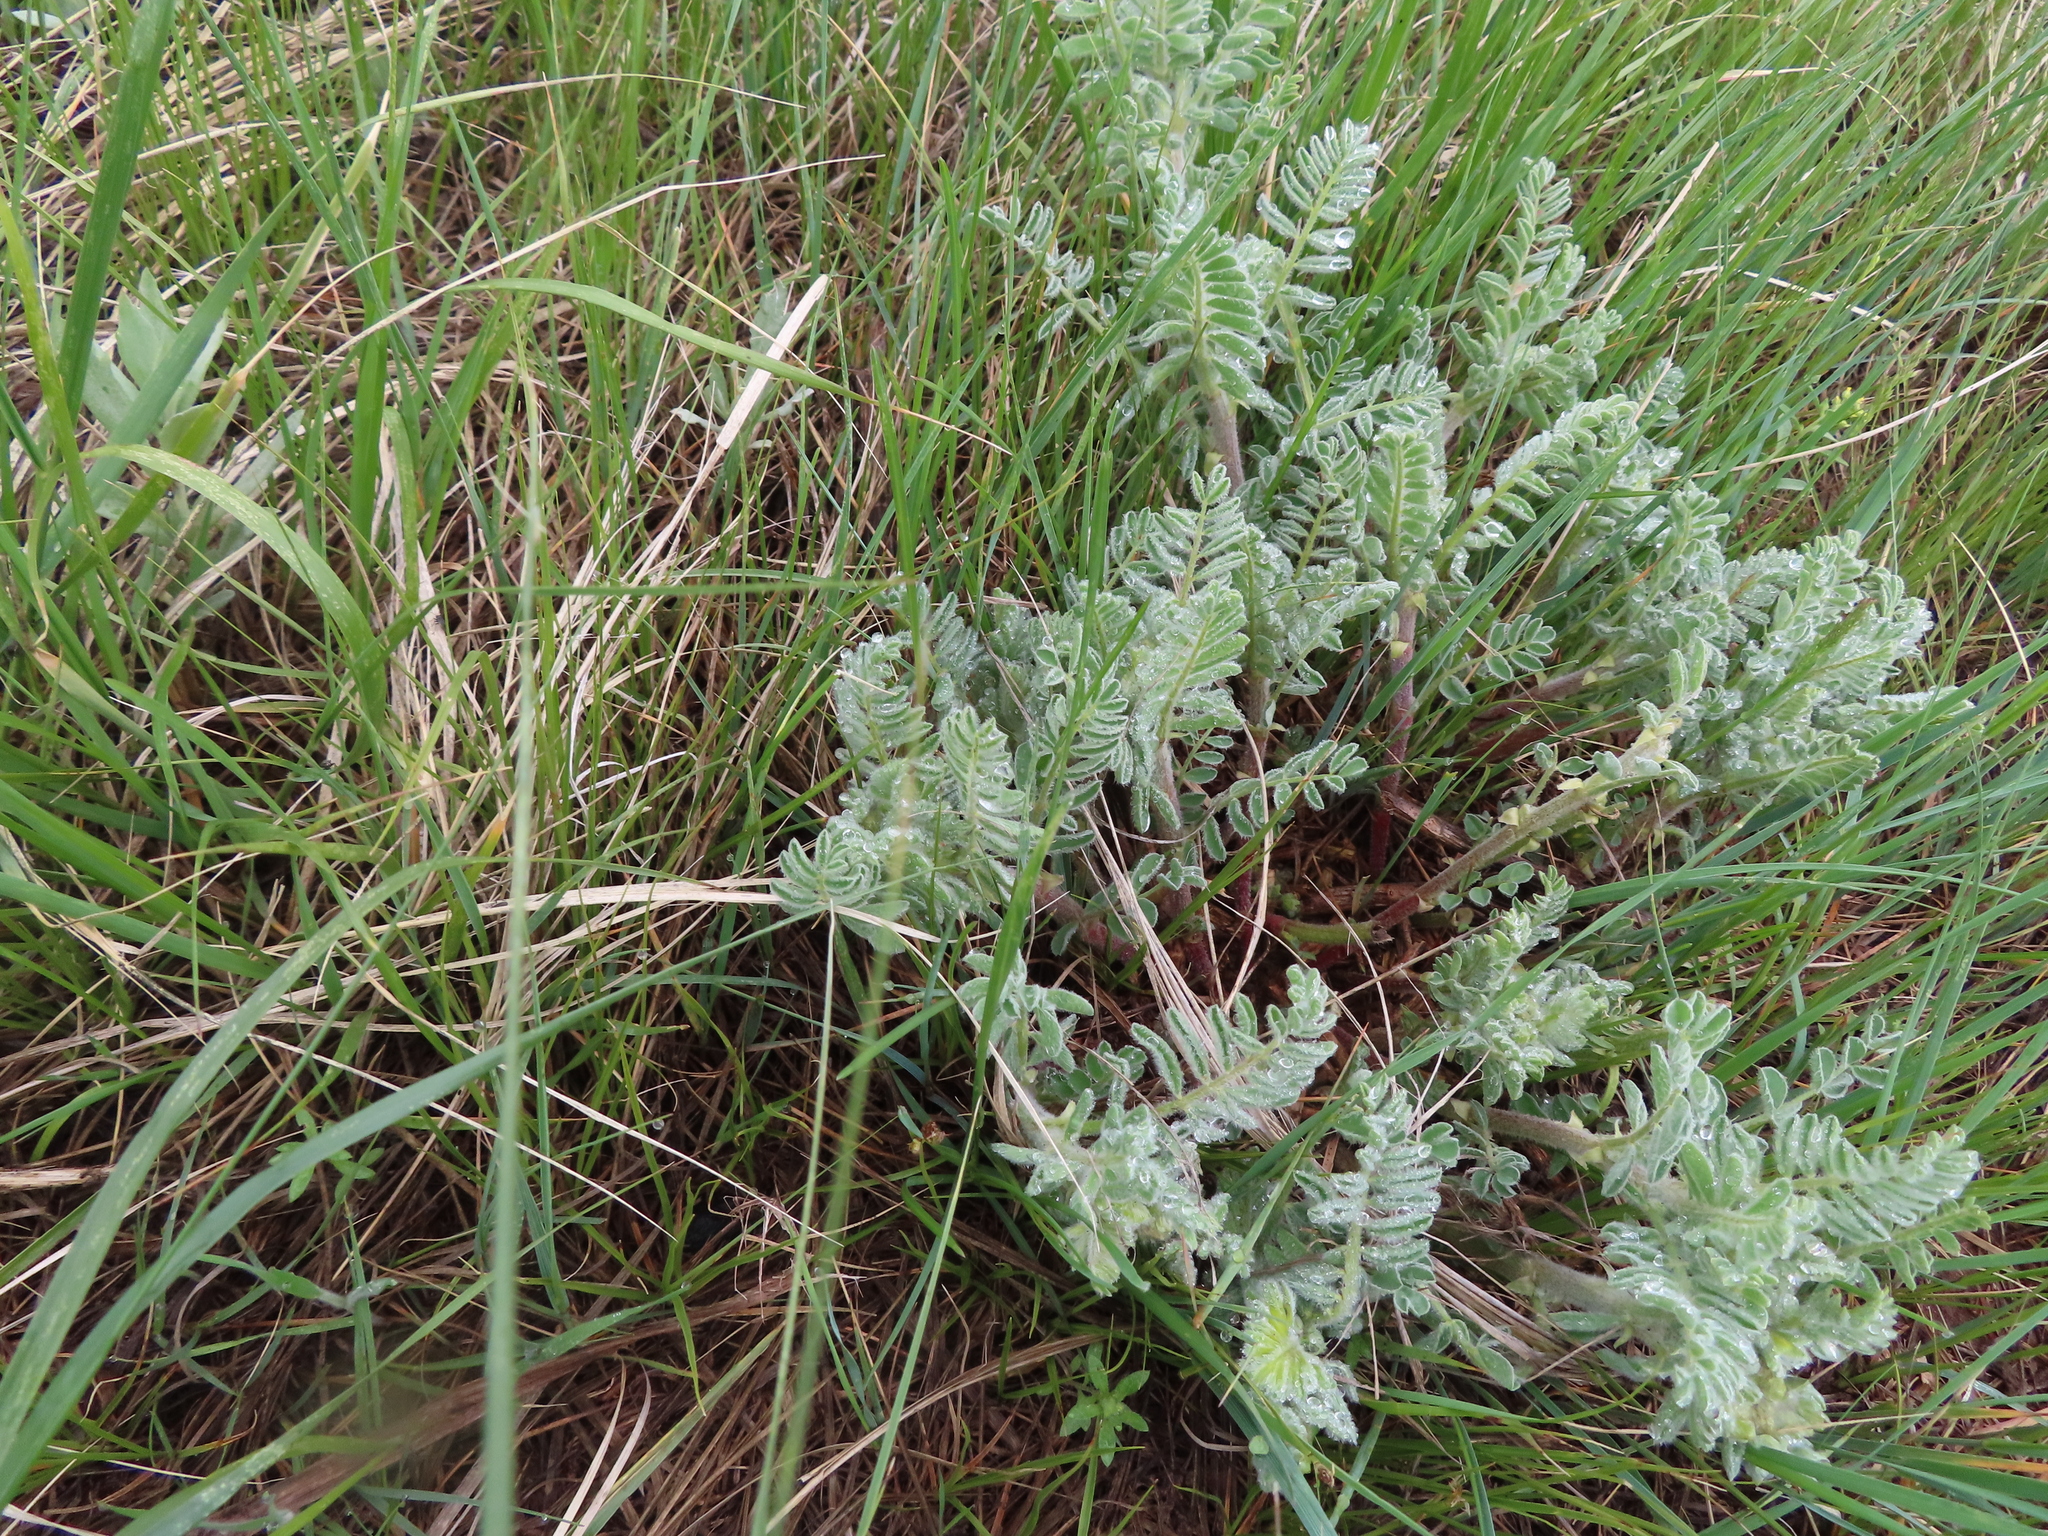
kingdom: Plantae
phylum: Tracheophyta
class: Magnoliopsida
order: Fabales
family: Fabaceae
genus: Astragalus
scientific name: Astragalus drummondii
